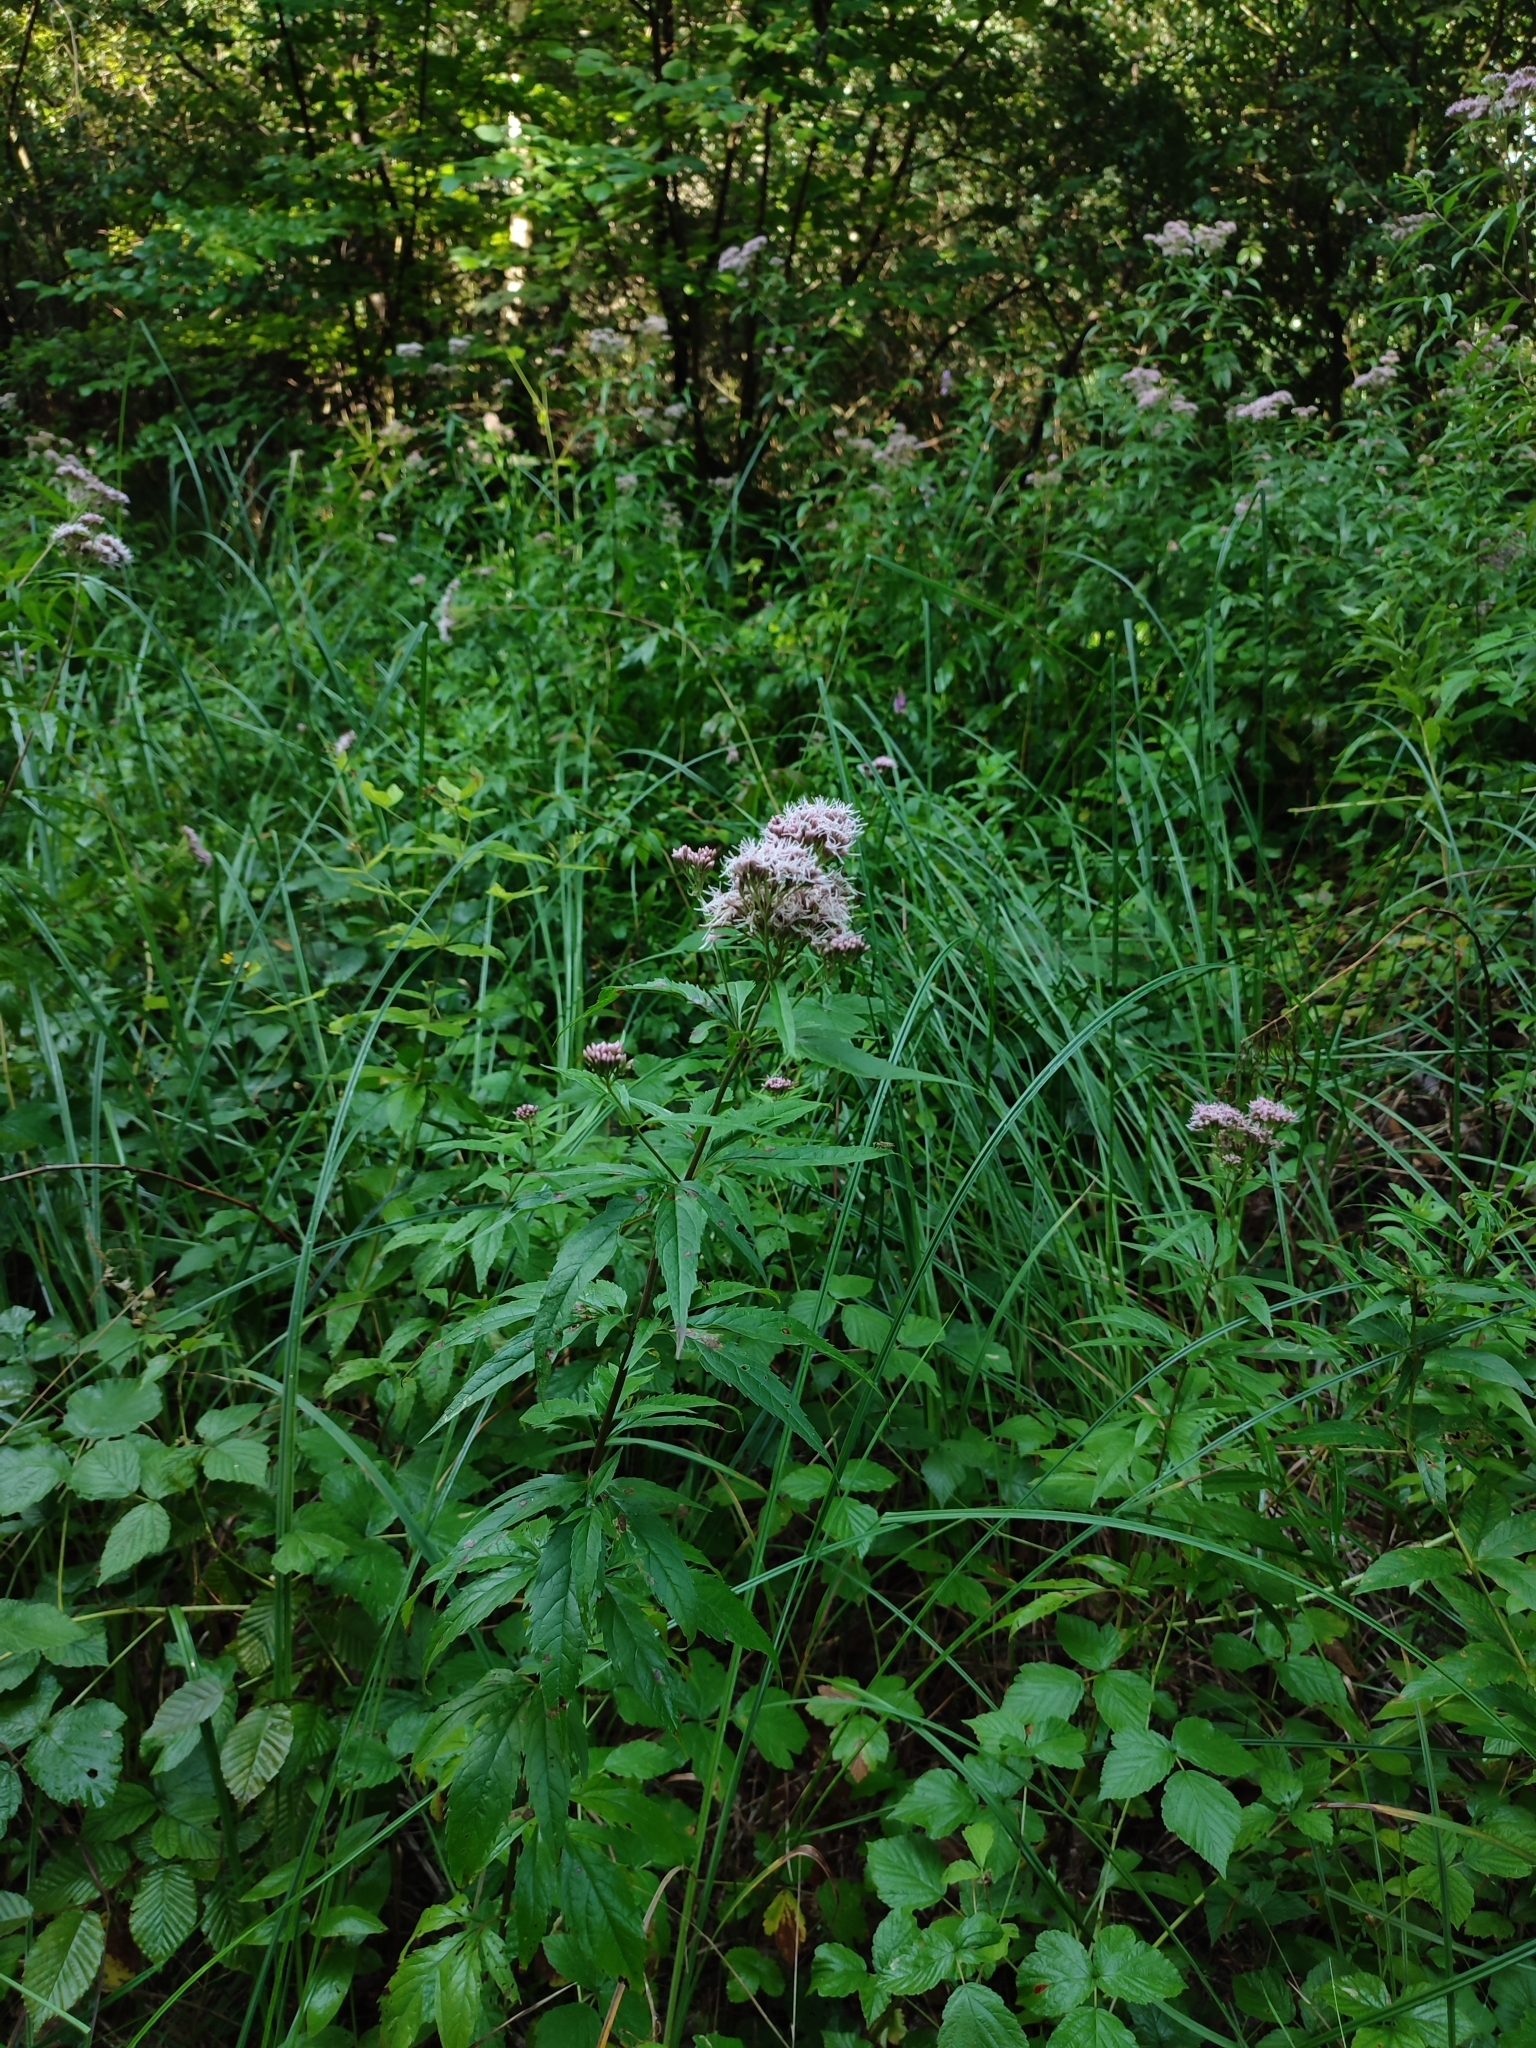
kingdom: Plantae
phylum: Tracheophyta
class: Magnoliopsida
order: Asterales
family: Asteraceae
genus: Eupatorium
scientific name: Eupatorium cannabinum
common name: Hemp-agrimony
